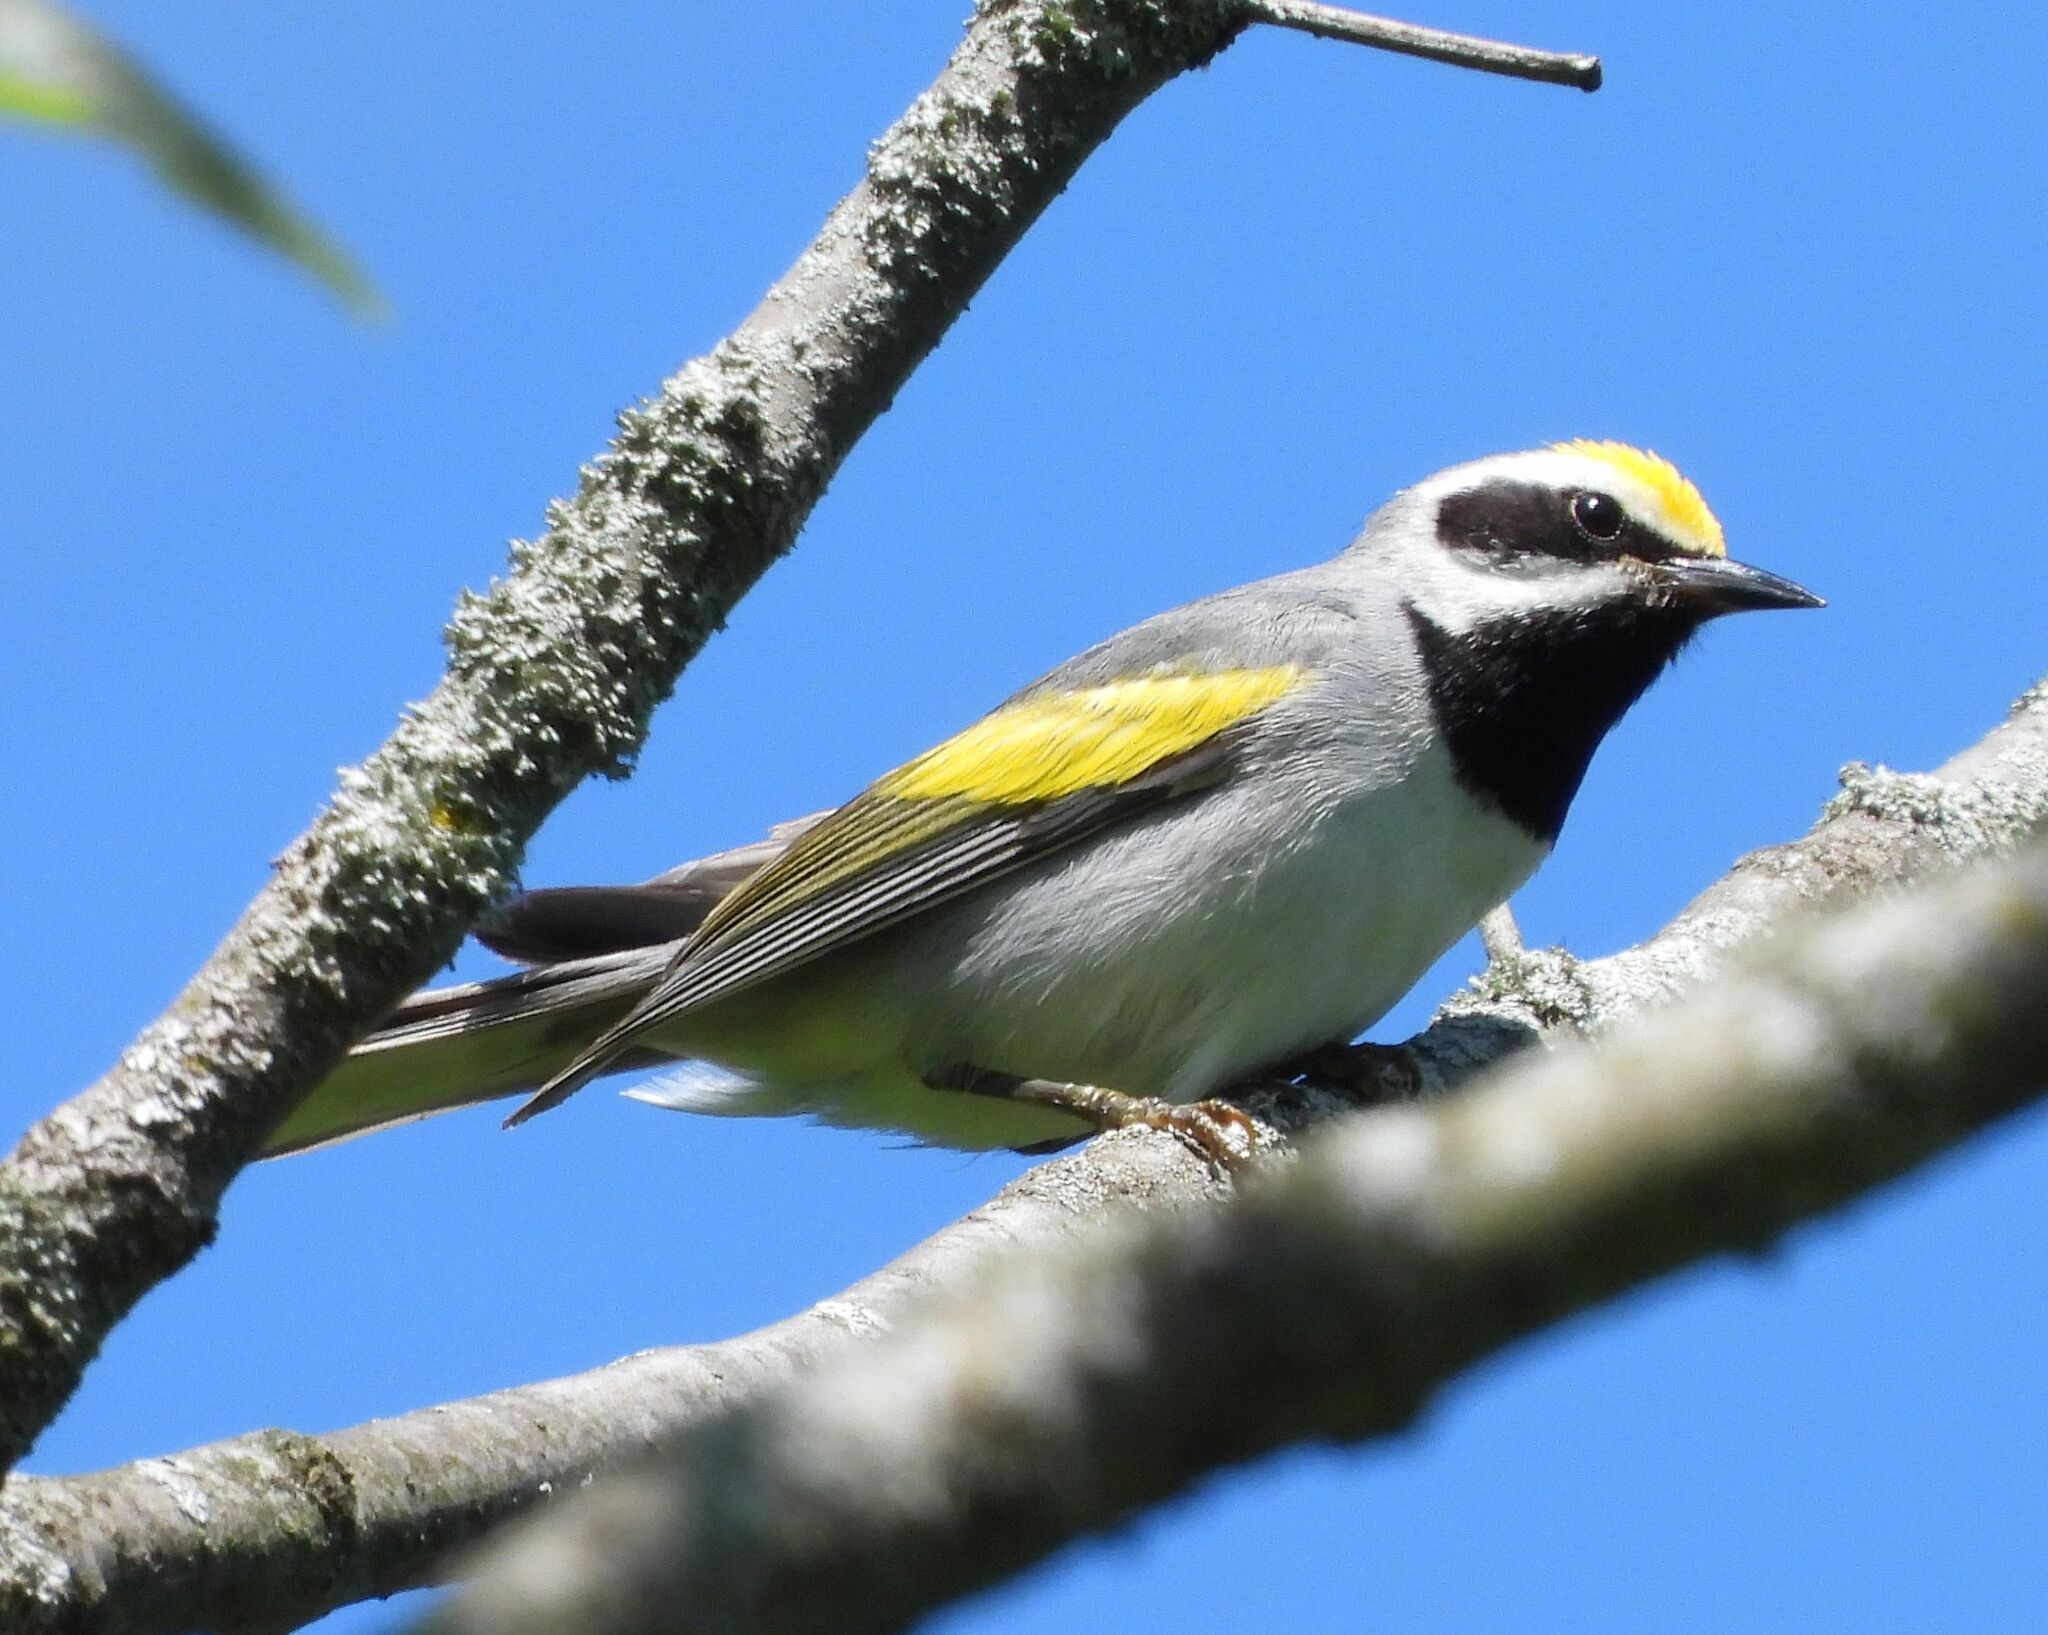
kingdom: Animalia
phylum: Chordata
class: Aves
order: Passeriformes
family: Parulidae
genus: Vermivora
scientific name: Vermivora chrysoptera
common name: Golden-winged warbler
